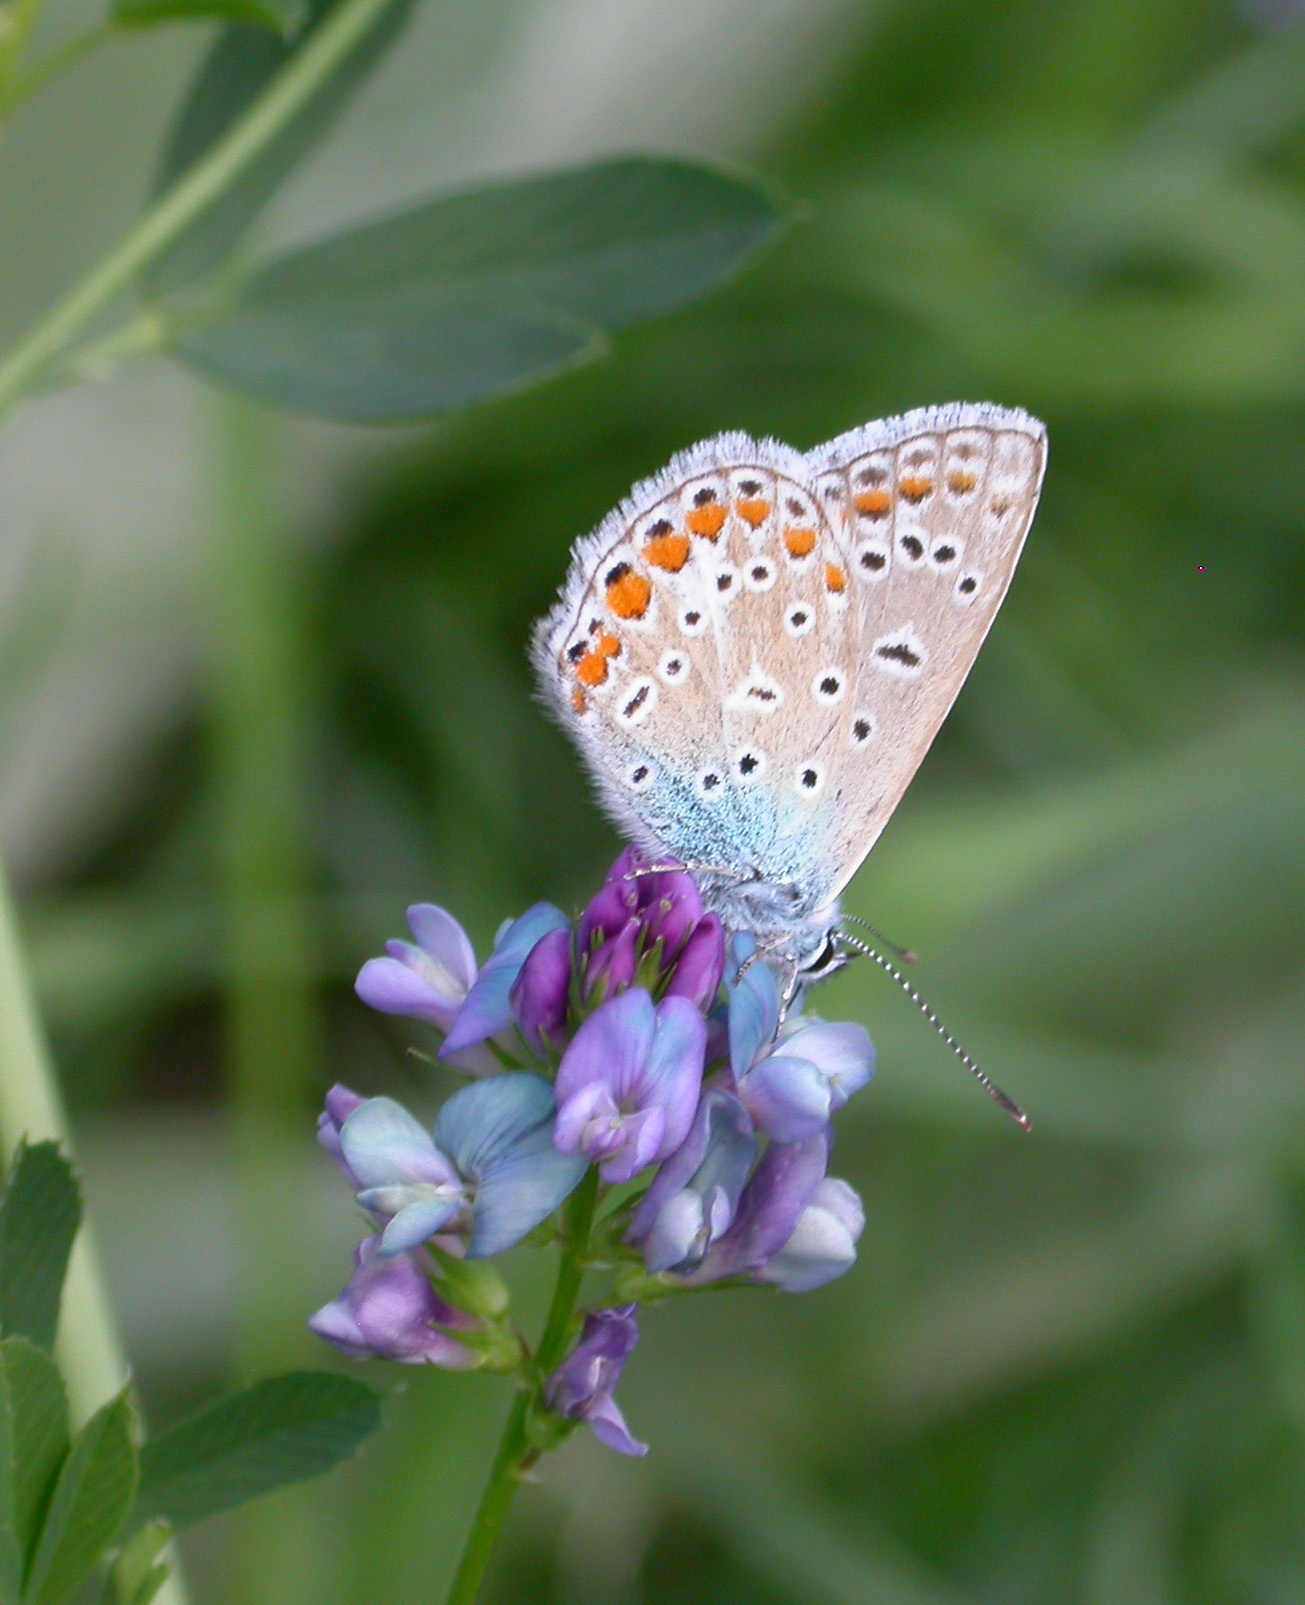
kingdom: Animalia
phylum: Arthropoda
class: Insecta
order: Lepidoptera
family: Lycaenidae
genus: Polyommatus
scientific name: Polyommatus icarus
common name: Common blue
